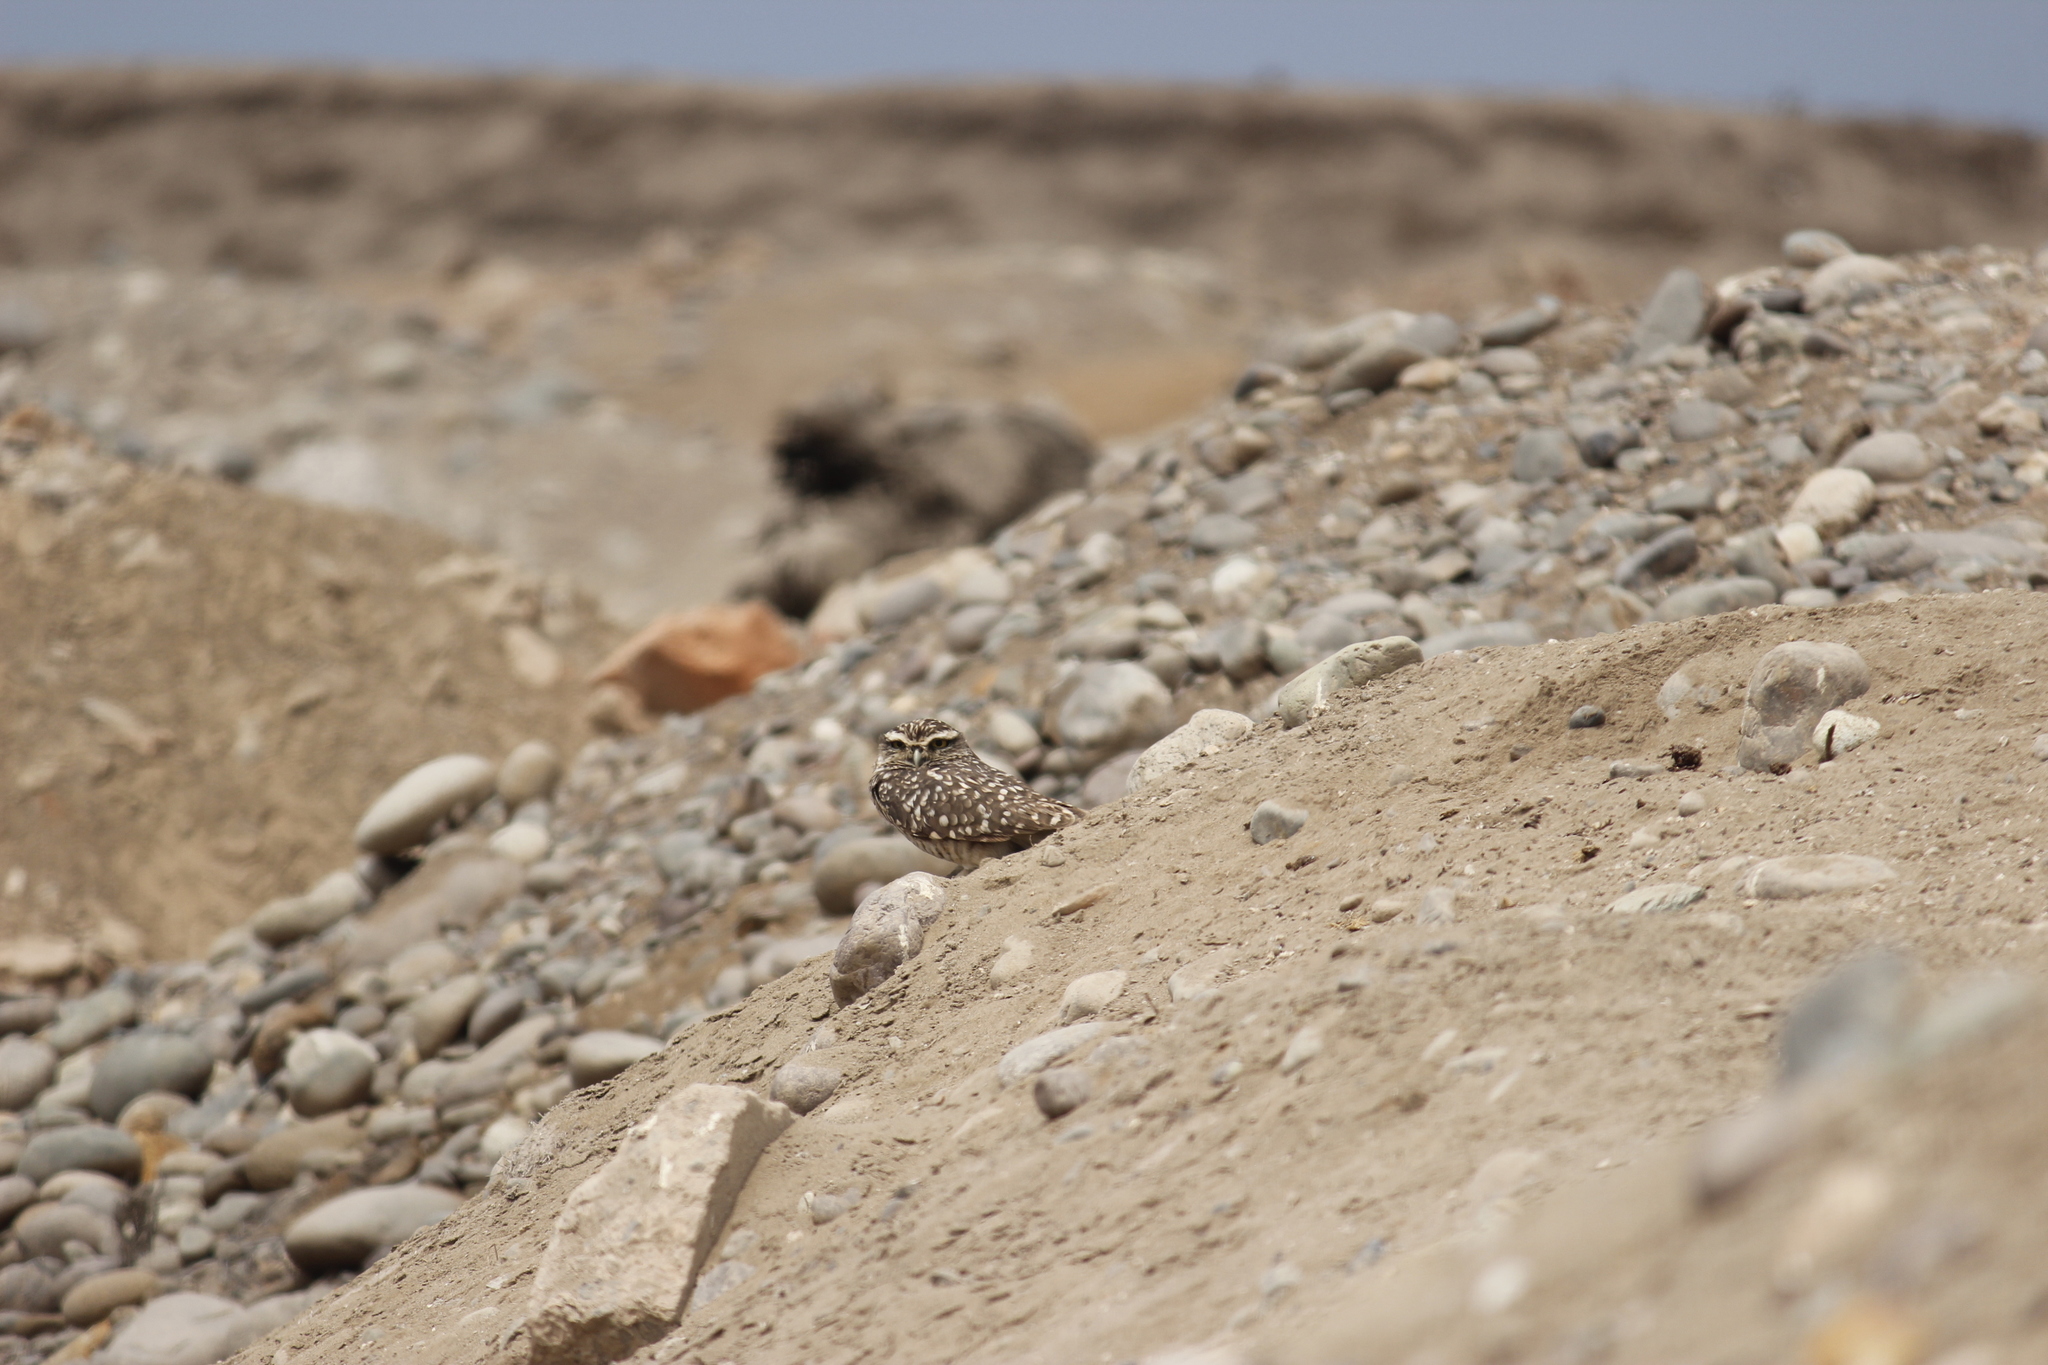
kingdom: Animalia
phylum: Chordata
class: Aves
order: Strigiformes
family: Strigidae
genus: Athene
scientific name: Athene cunicularia
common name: Burrowing owl
